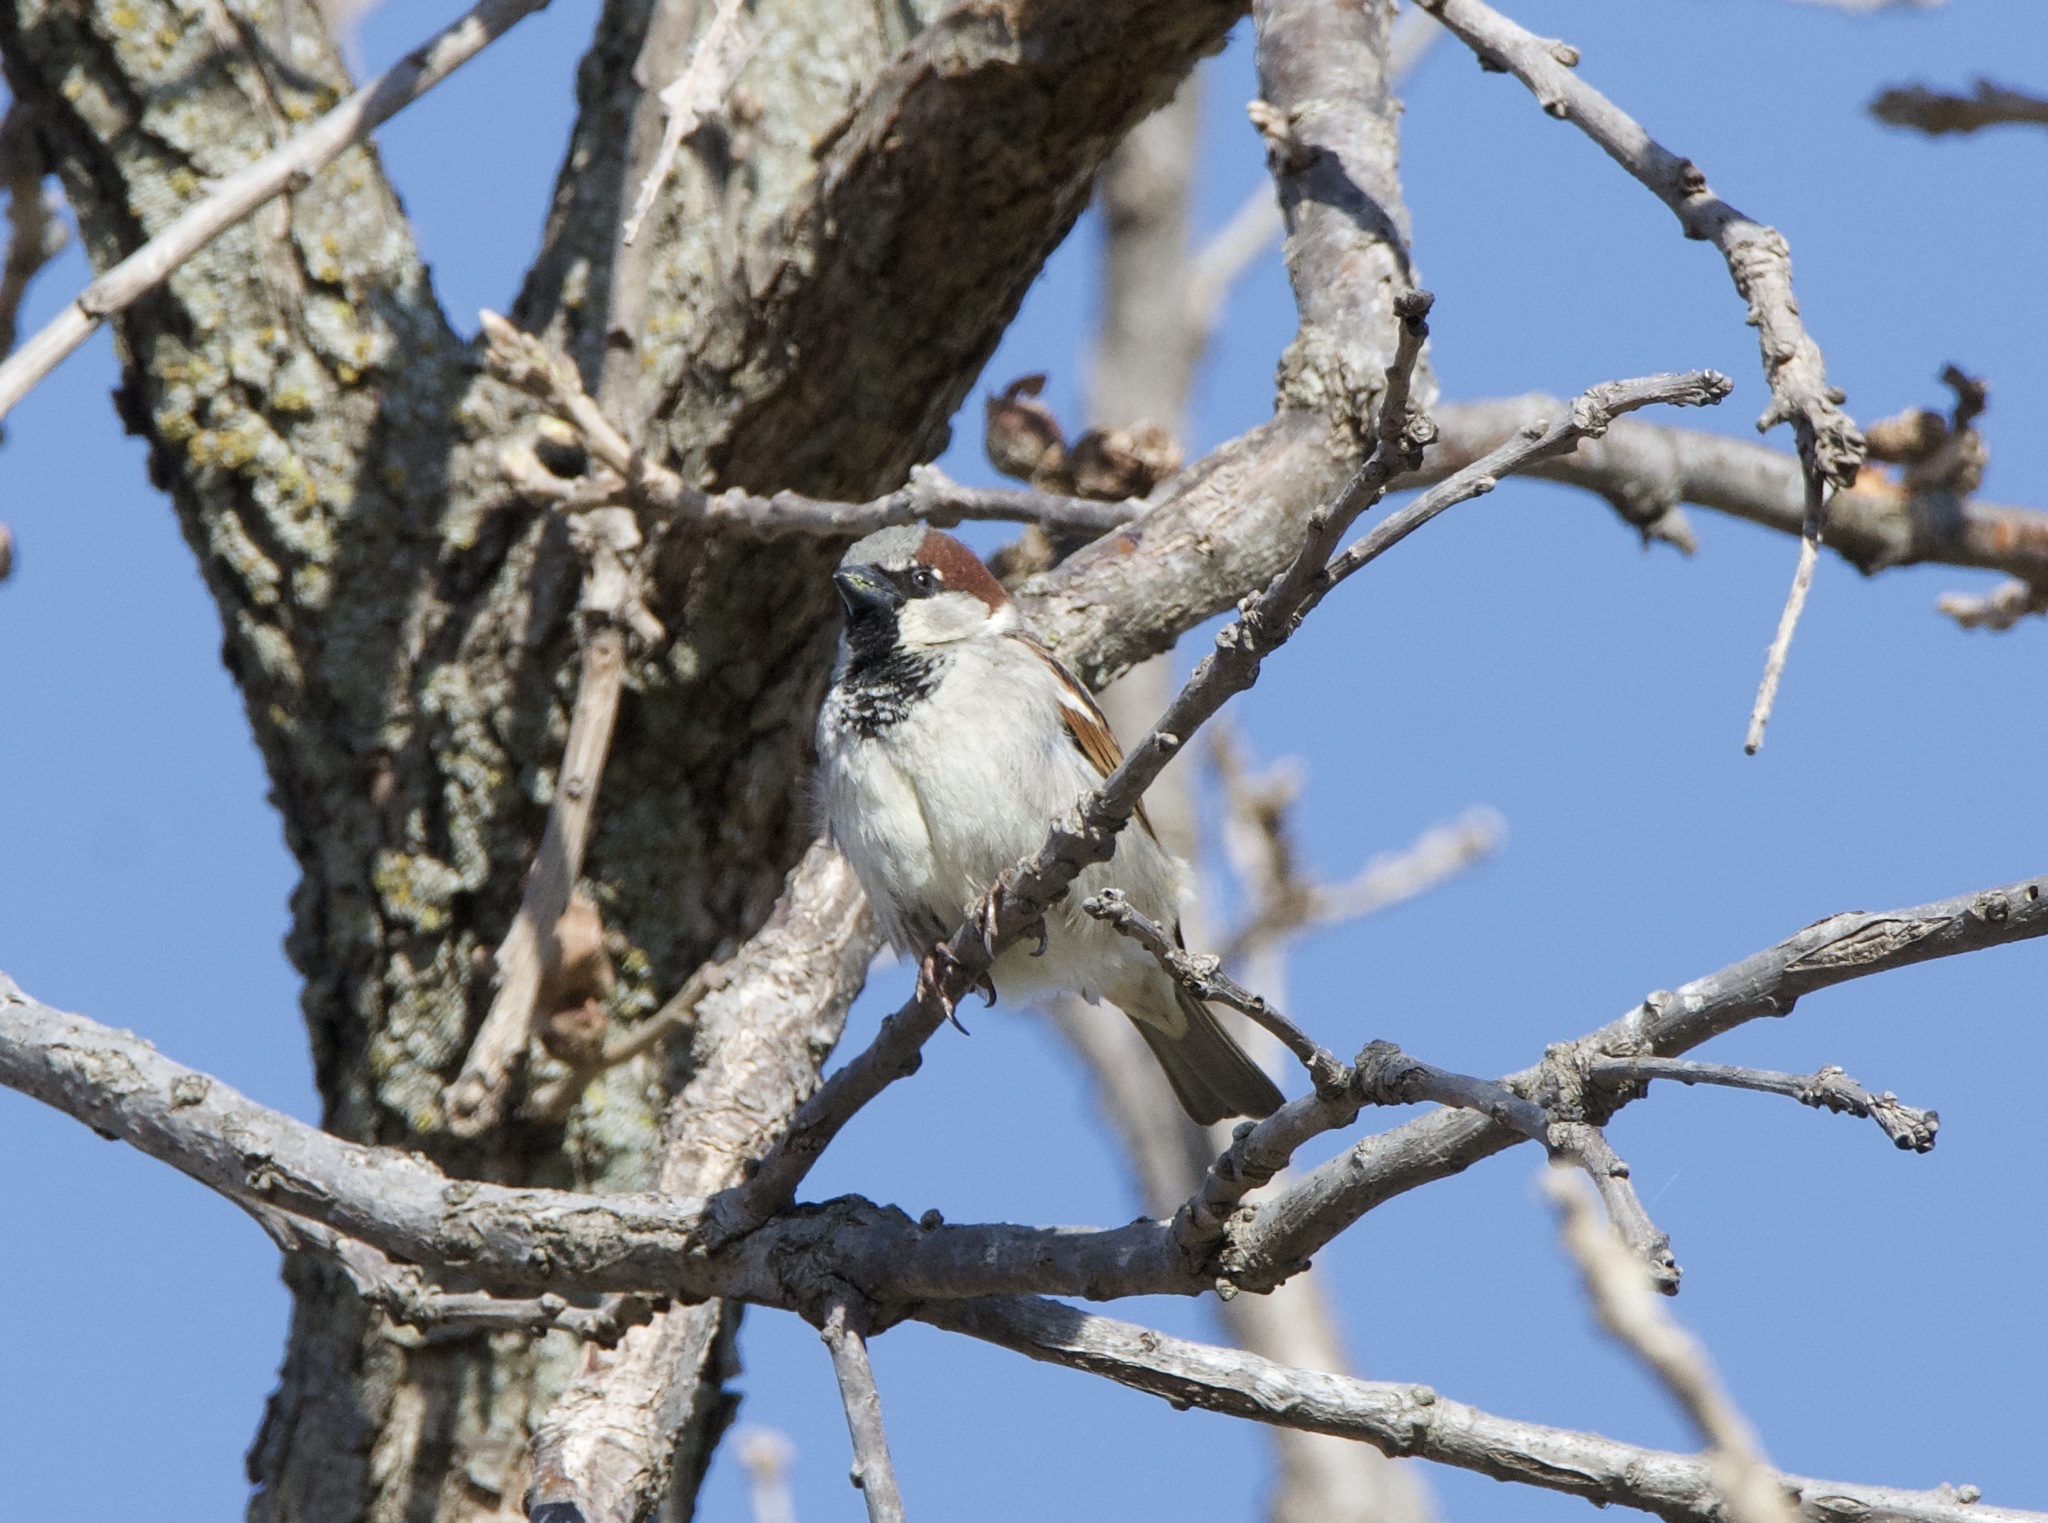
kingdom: Animalia
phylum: Chordata
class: Aves
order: Passeriformes
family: Passeridae
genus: Passer
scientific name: Passer domesticus
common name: House sparrow
